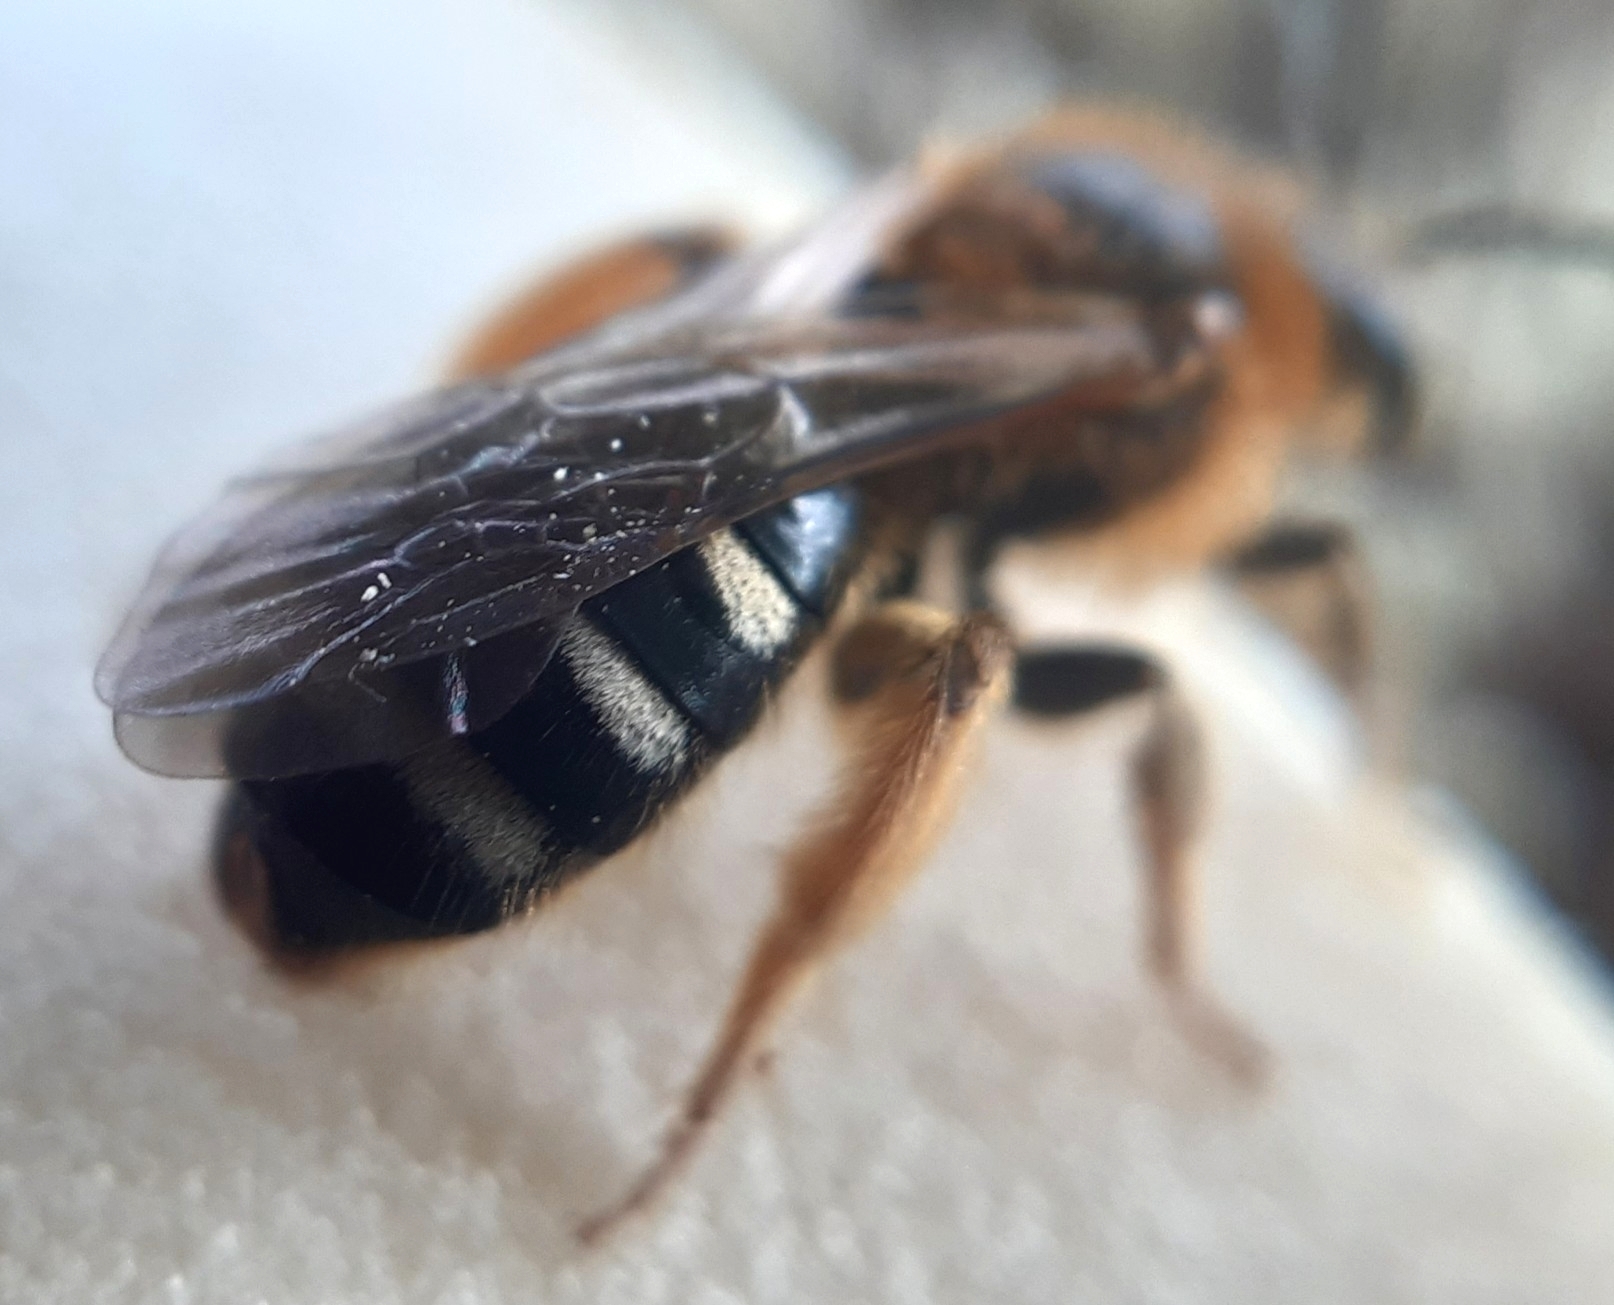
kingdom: Animalia
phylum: Arthropoda
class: Insecta
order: Hymenoptera
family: Halictidae
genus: Lasioglossum
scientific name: Lasioglossum xanthopus
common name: Orange-footed furrow bee
